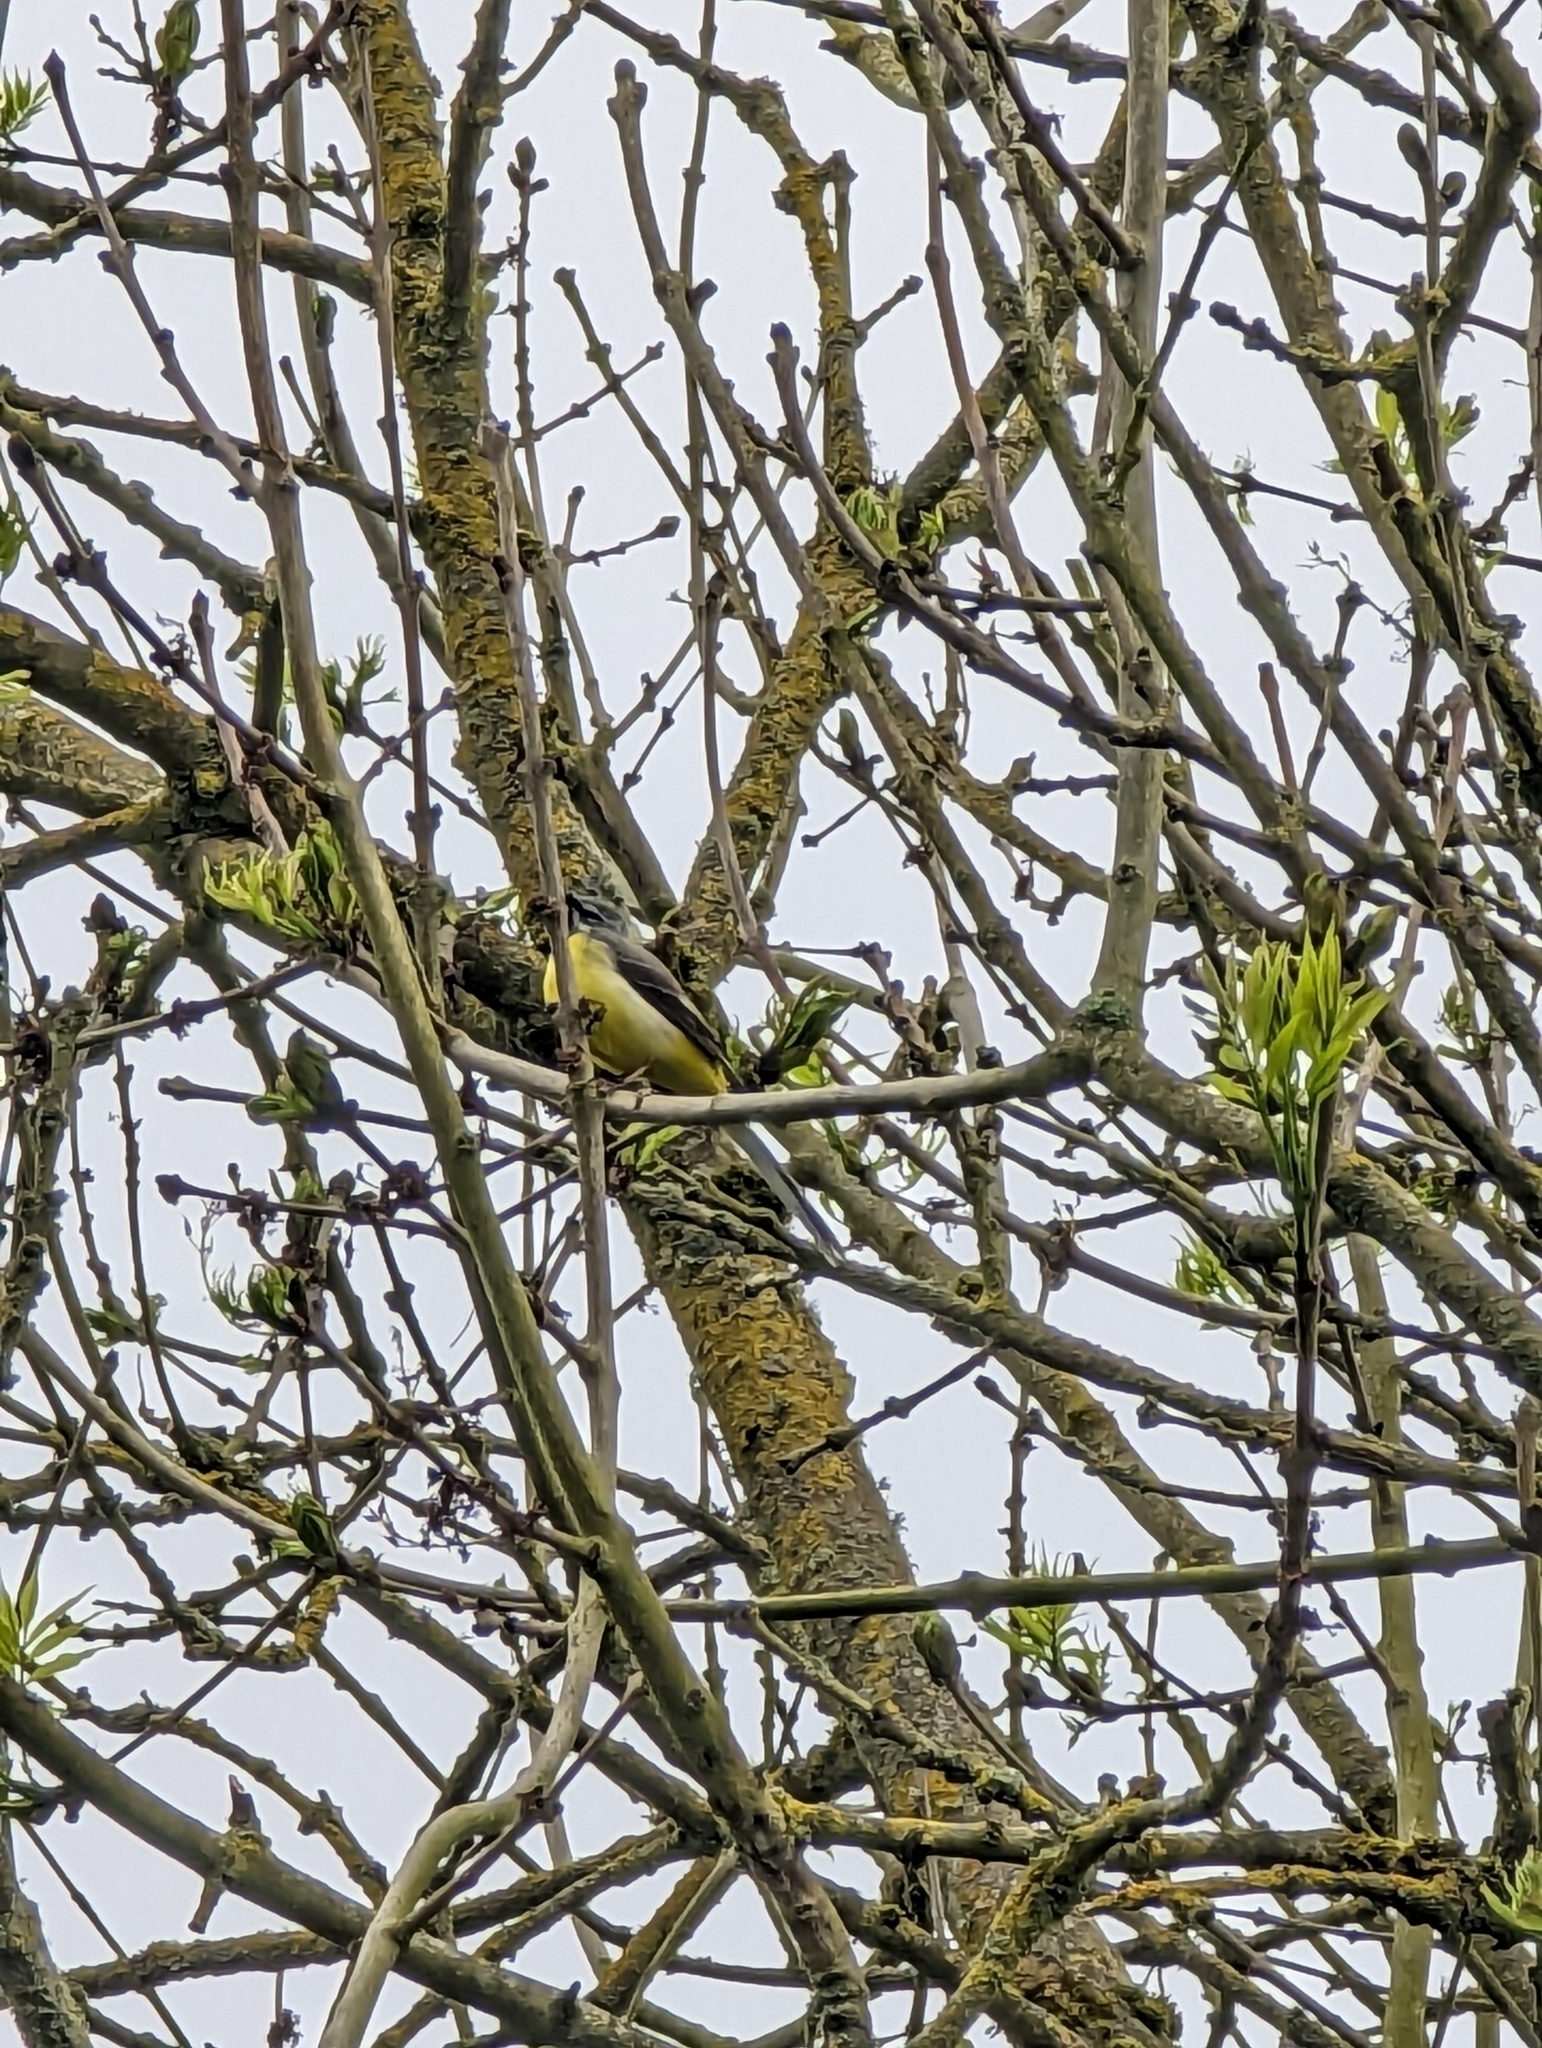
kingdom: Animalia
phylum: Chordata
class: Aves
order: Passeriformes
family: Motacillidae
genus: Motacilla
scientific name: Motacilla cinerea
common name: Grey wagtail
